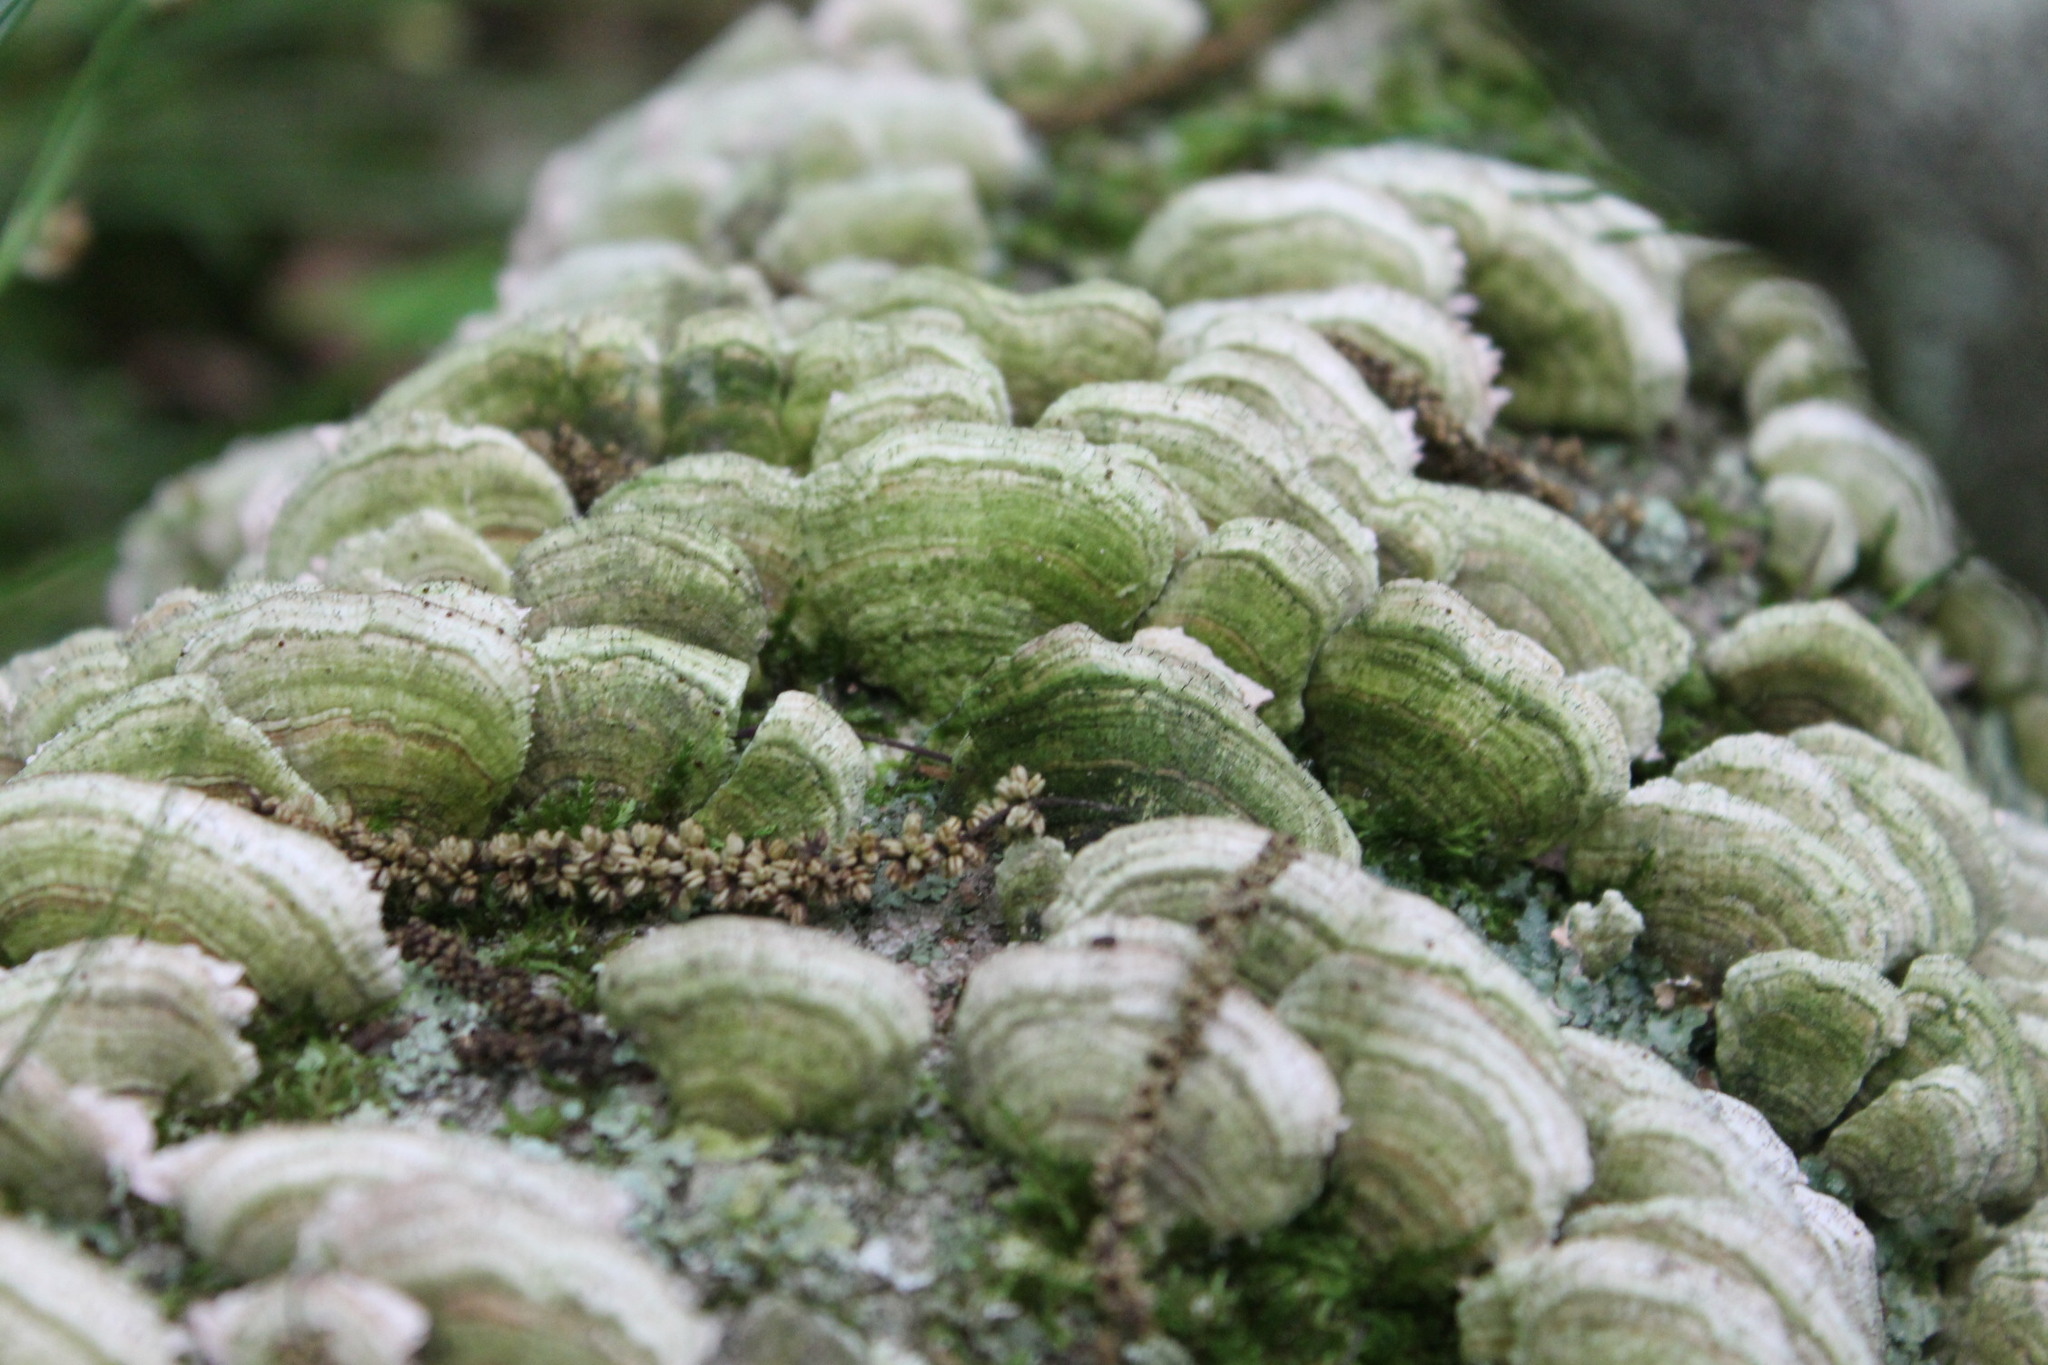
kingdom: Fungi
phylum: Basidiomycota
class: Agaricomycetes
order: Hymenochaetales
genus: Trichaptum
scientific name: Trichaptum biforme
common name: Violet-toothed polypore
